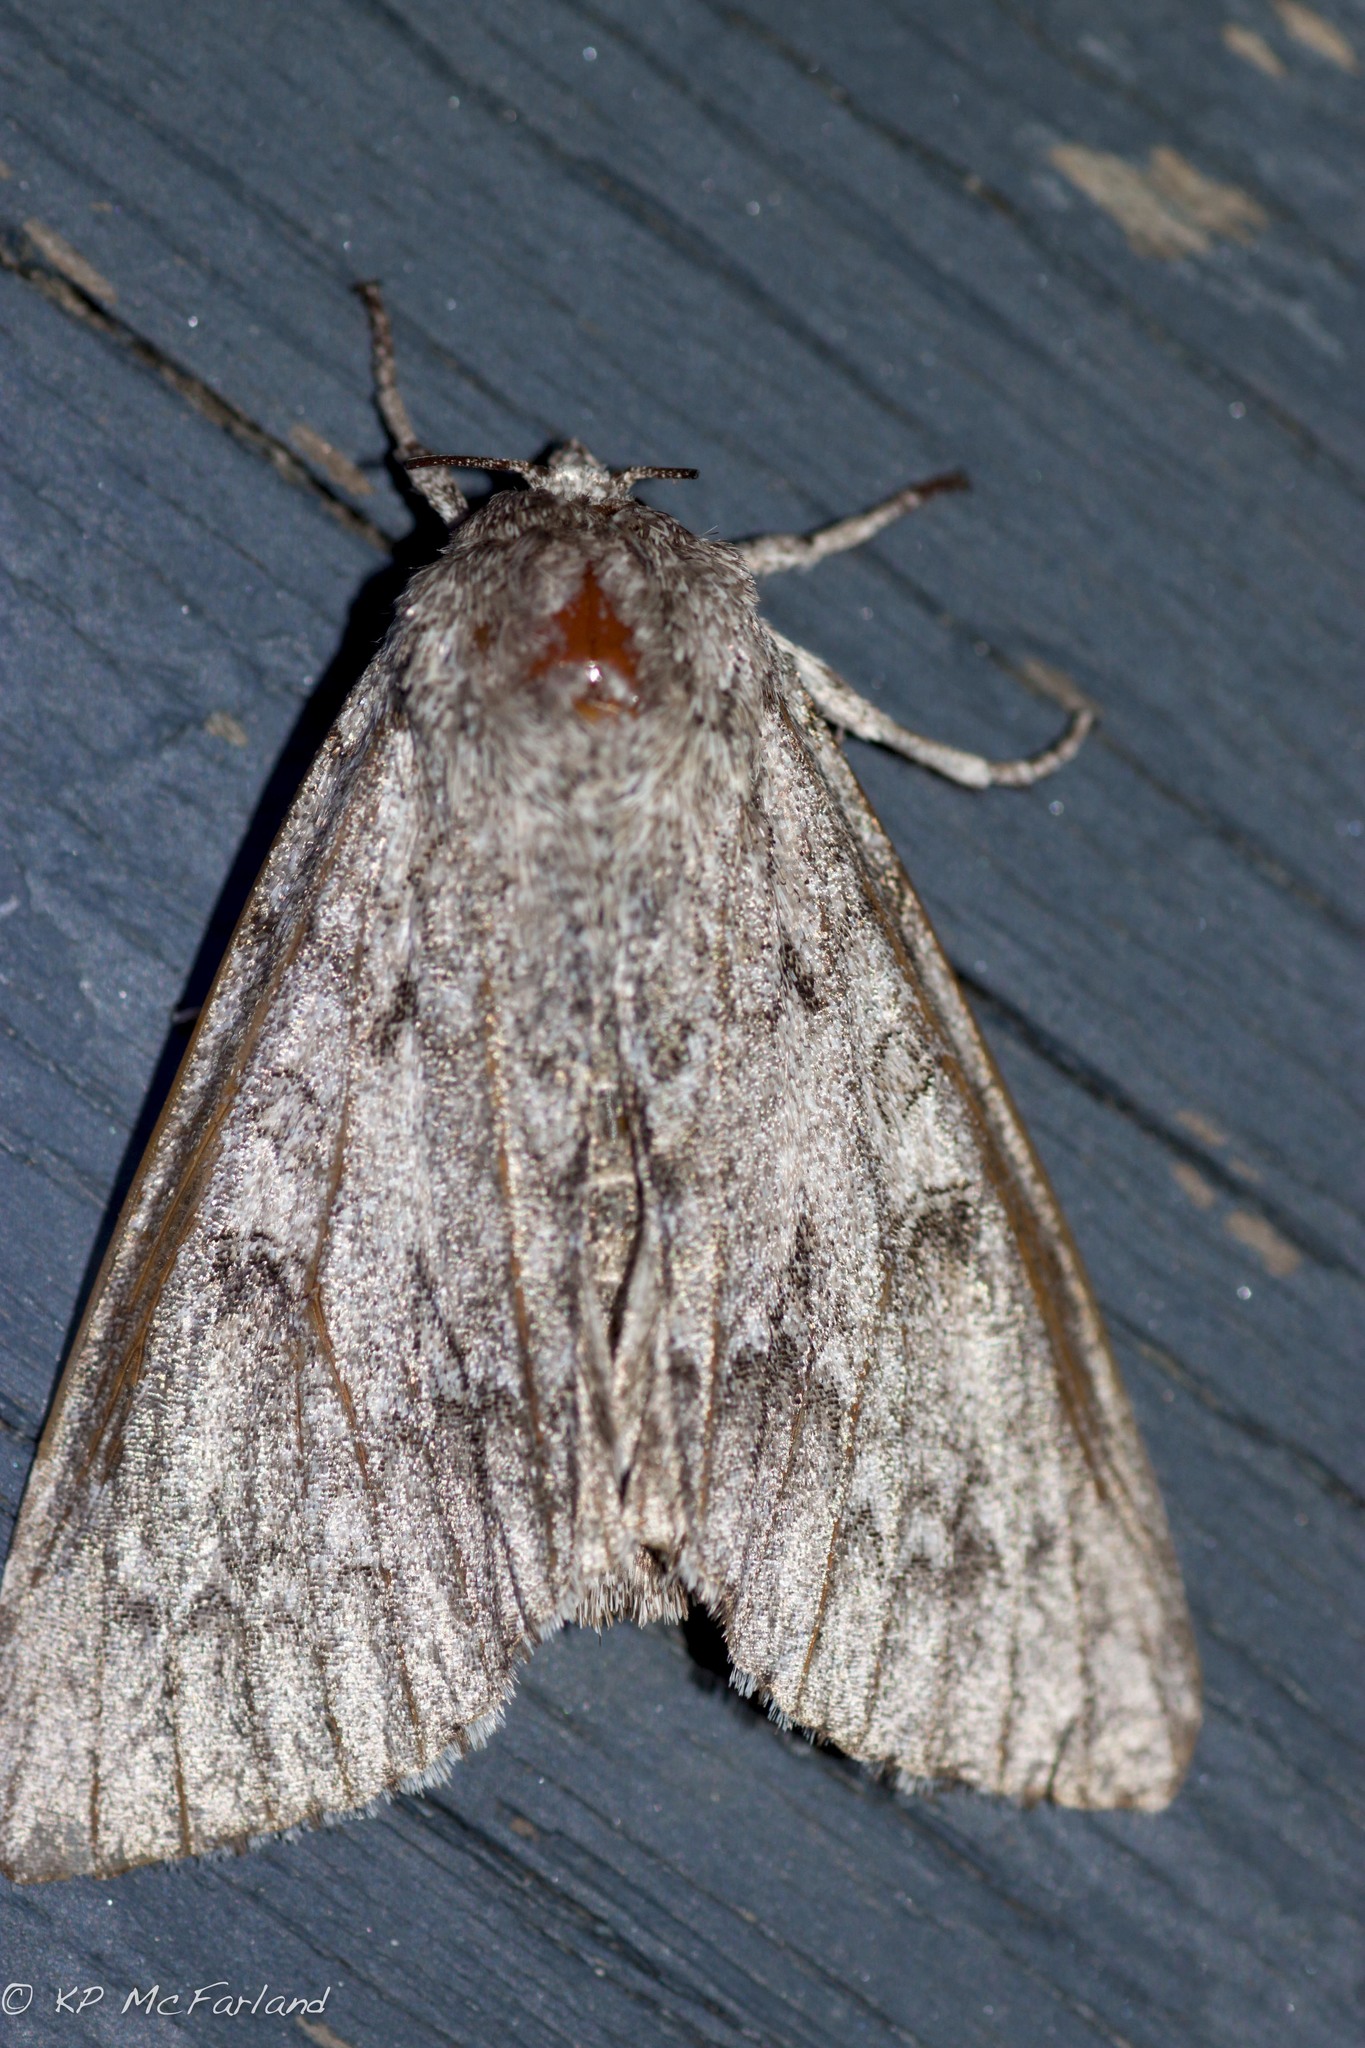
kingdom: Animalia
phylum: Arthropoda
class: Insecta
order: Lepidoptera
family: Noctuidae
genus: Acronicta
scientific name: Acronicta americana
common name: American dagger
